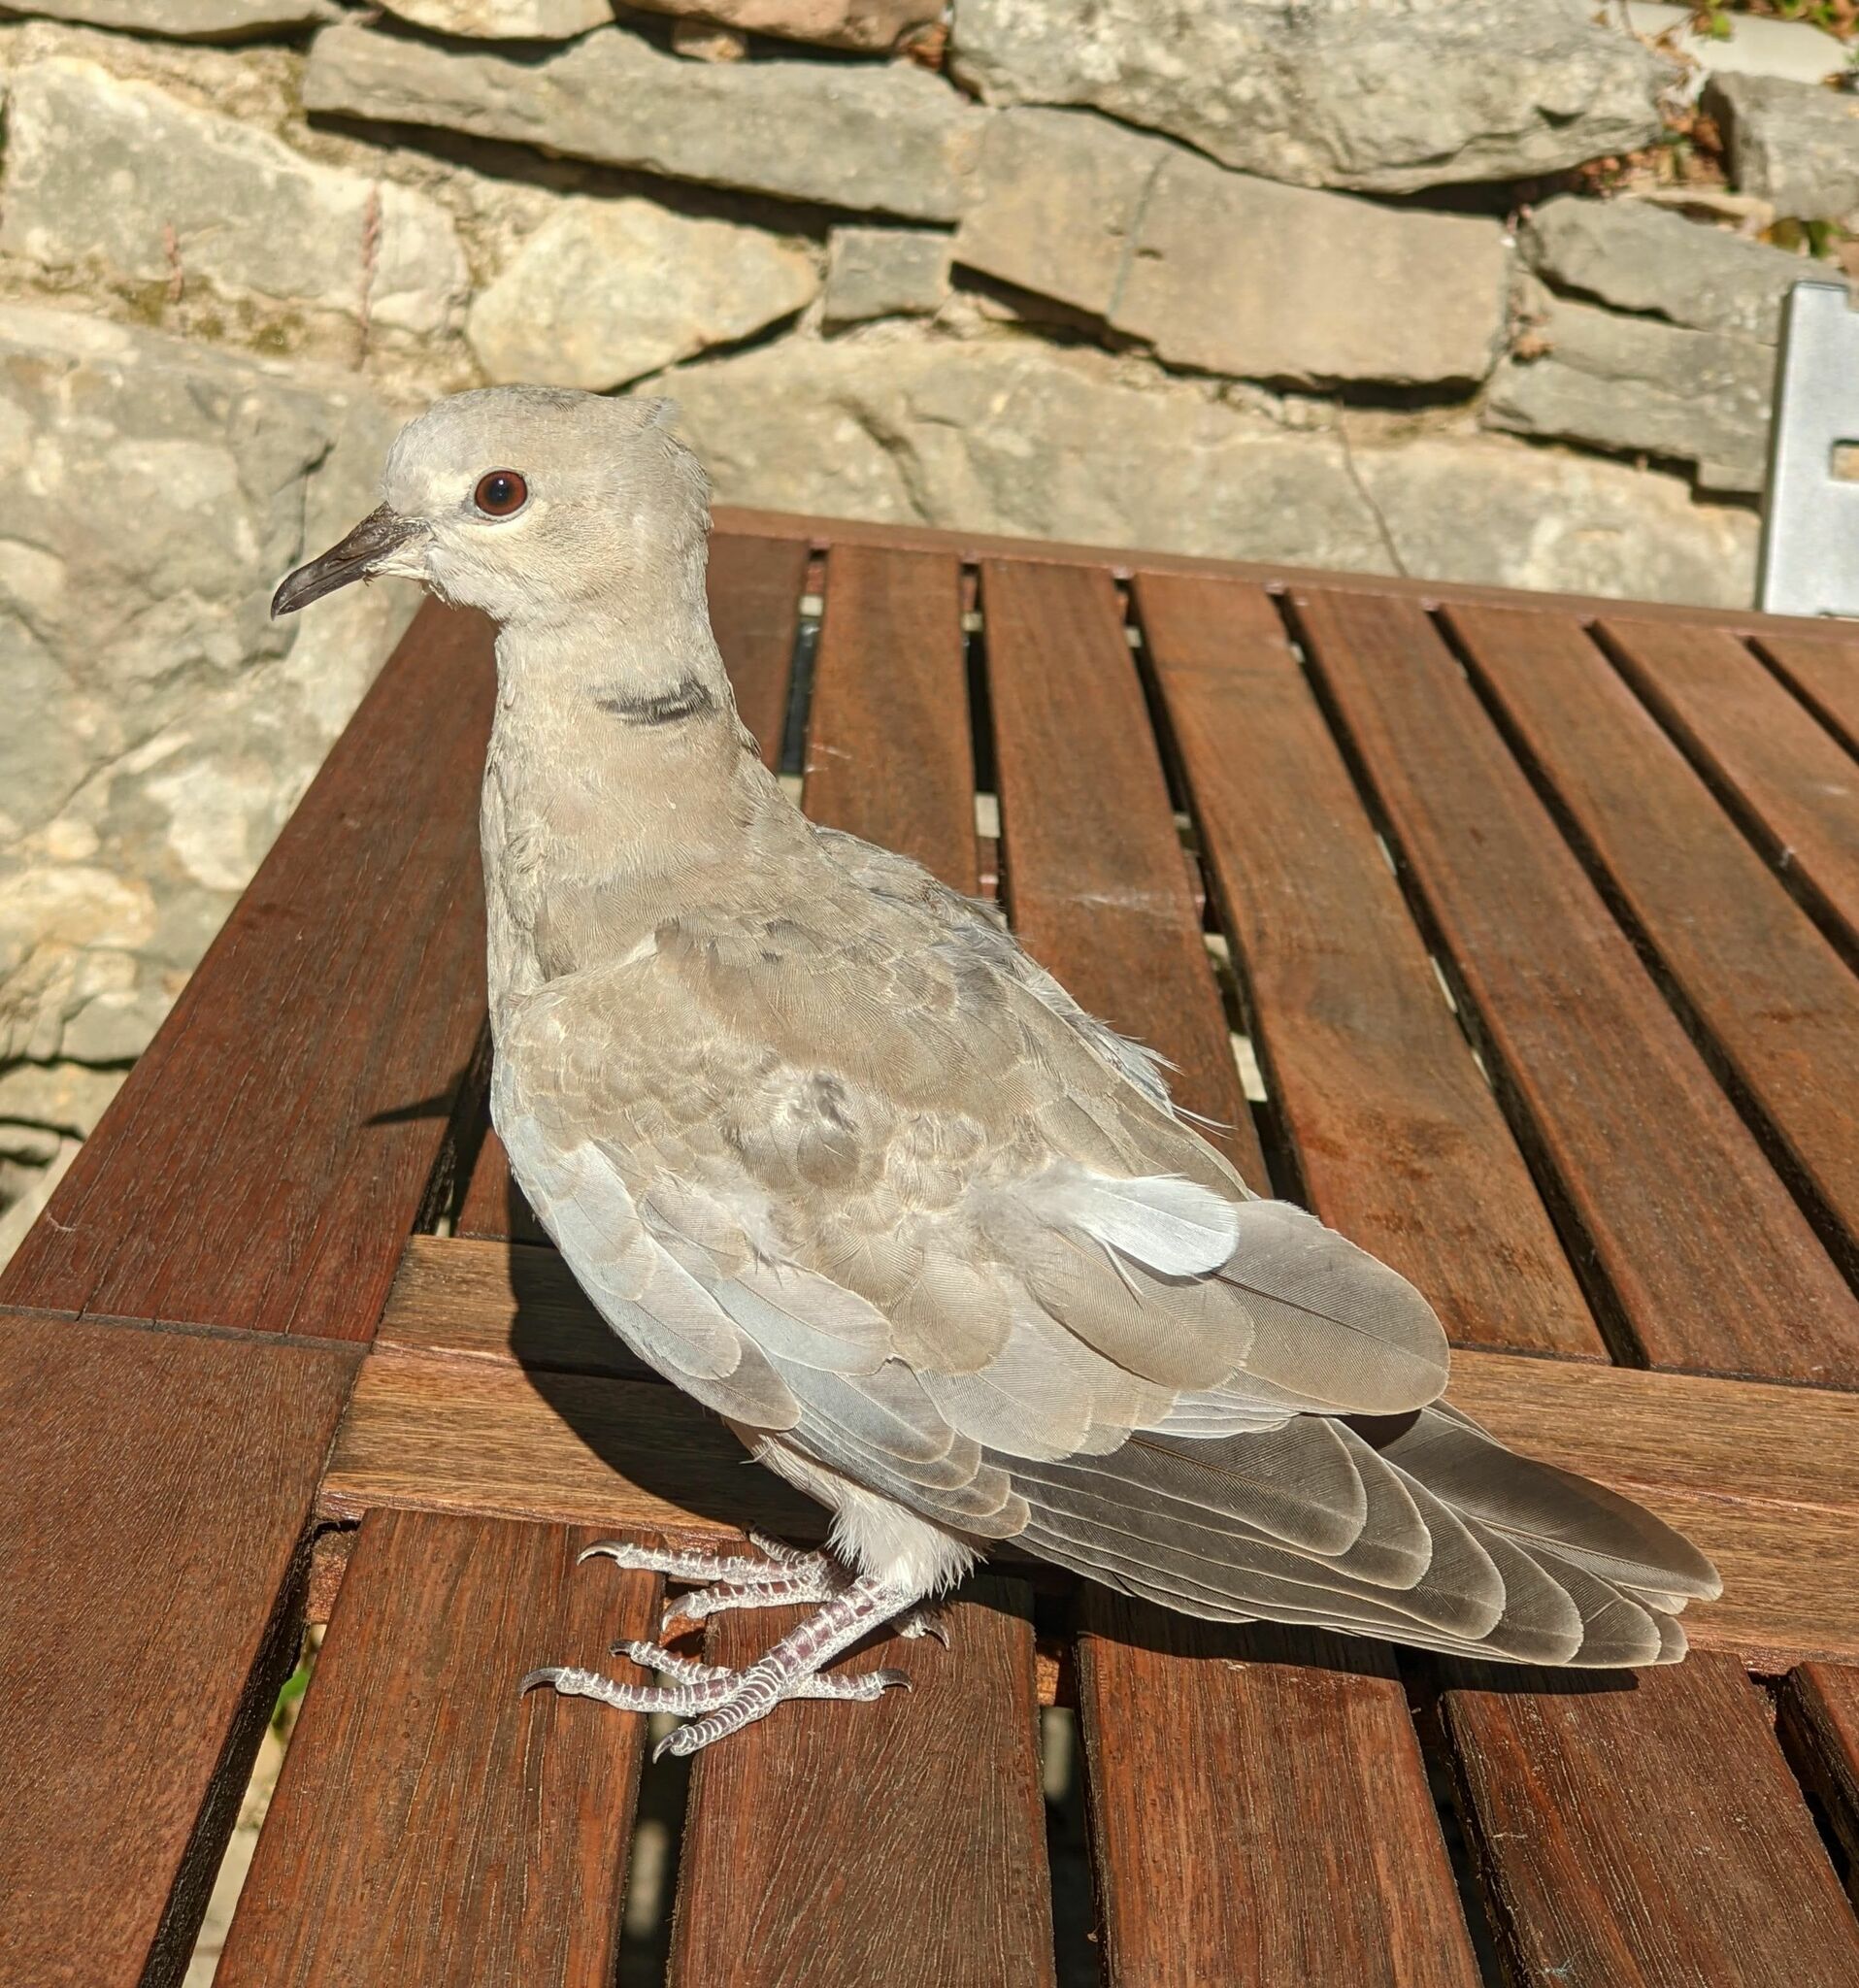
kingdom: Animalia
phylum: Chordata
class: Aves
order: Columbiformes
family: Columbidae
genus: Streptopelia
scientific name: Streptopelia decaocto
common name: Eurasian collared dove
